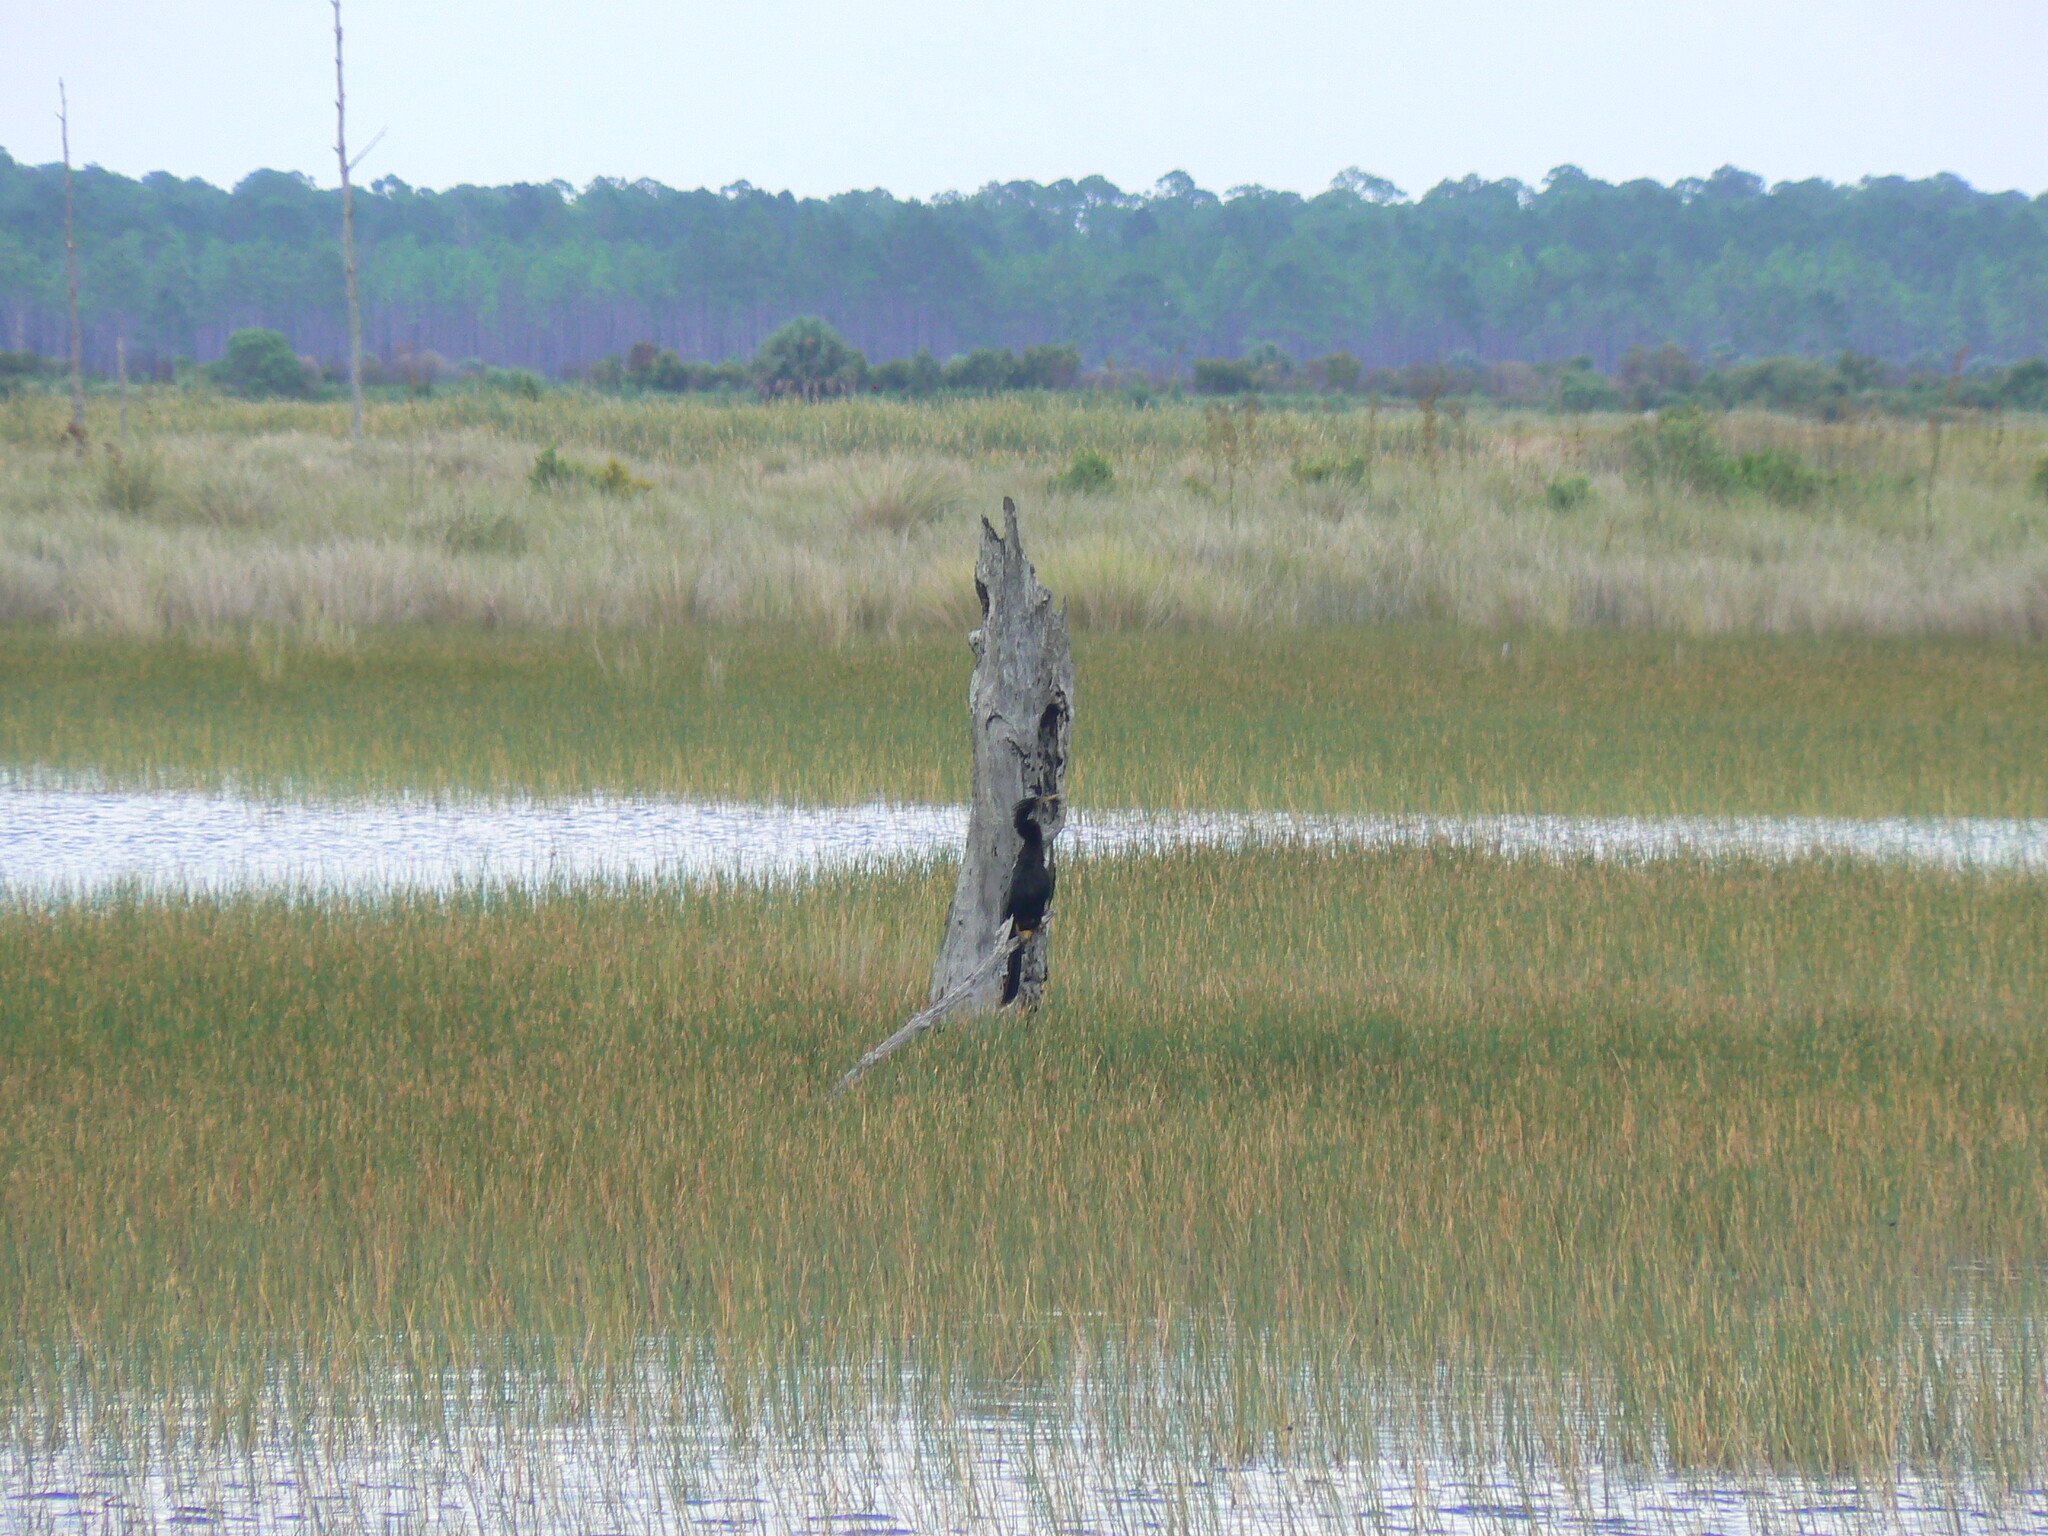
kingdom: Animalia
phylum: Chordata
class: Aves
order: Suliformes
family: Anhingidae
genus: Anhinga
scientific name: Anhinga anhinga
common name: Anhinga
